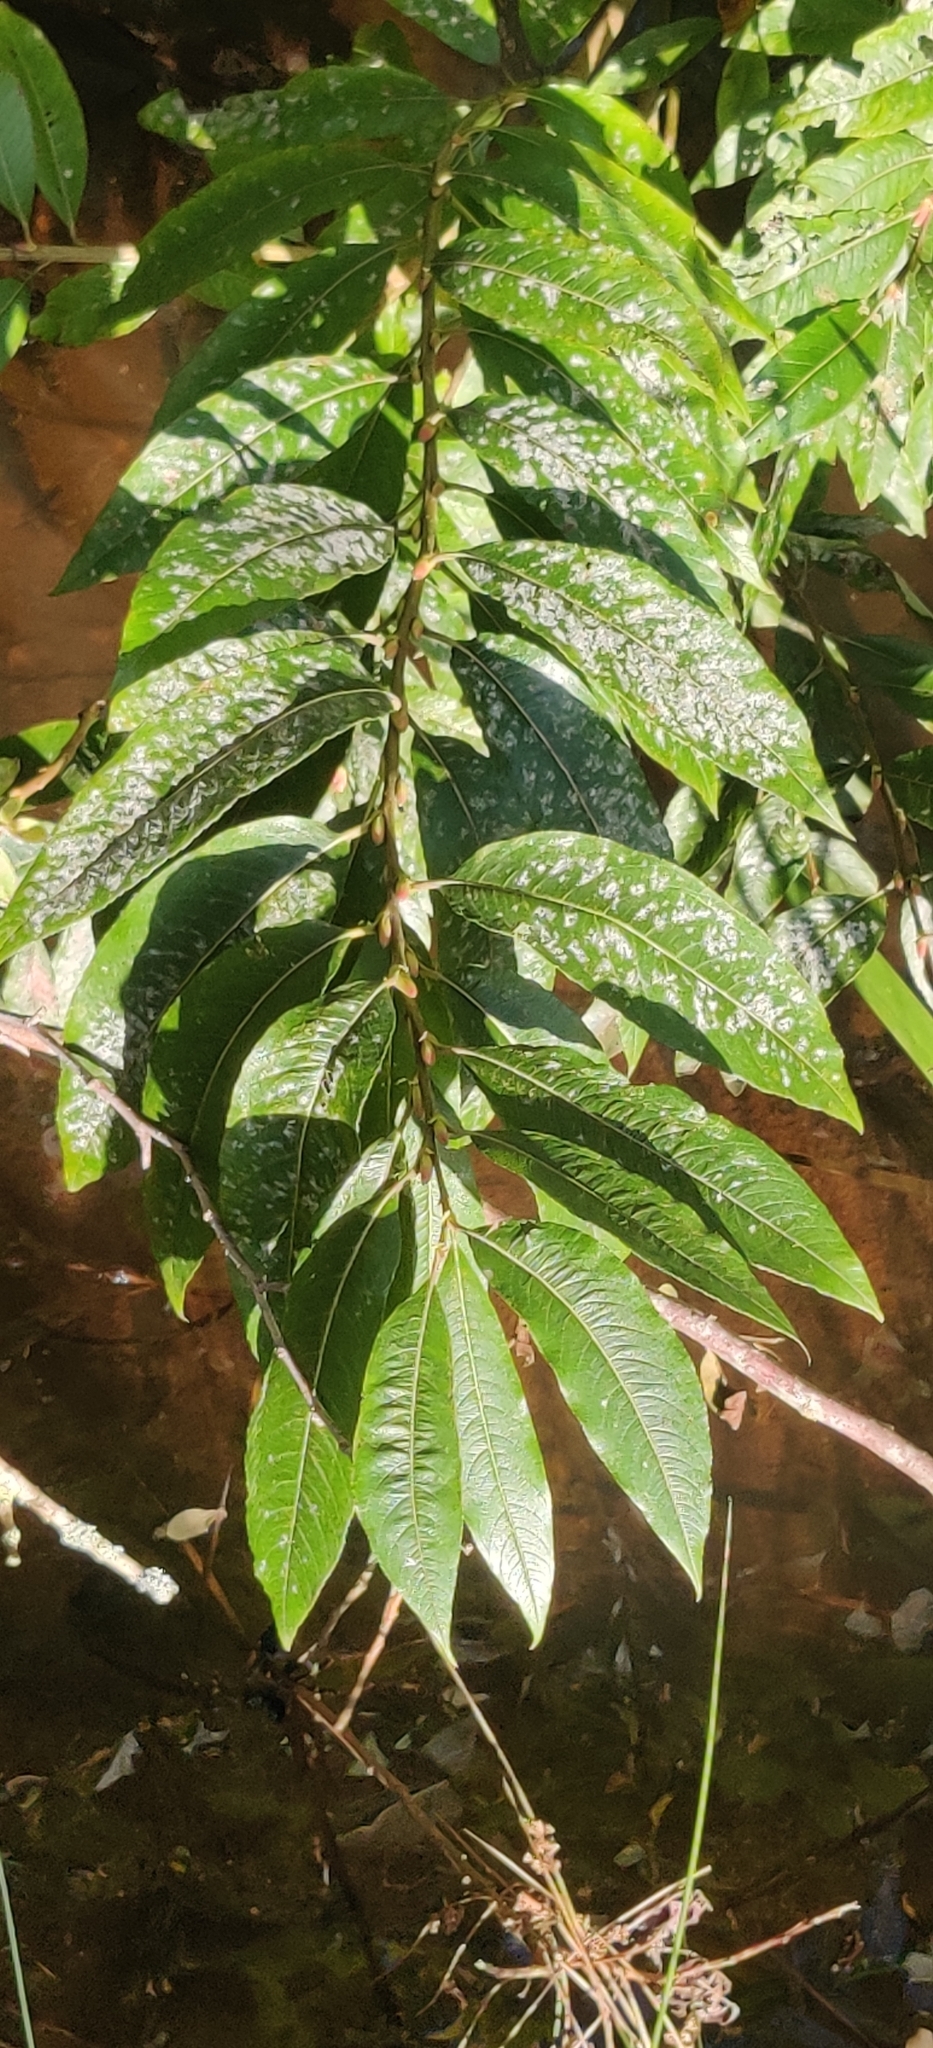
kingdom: Plantae
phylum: Tracheophyta
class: Magnoliopsida
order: Malpighiales
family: Salicaceae
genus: Salix
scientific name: Salix koidzumii
